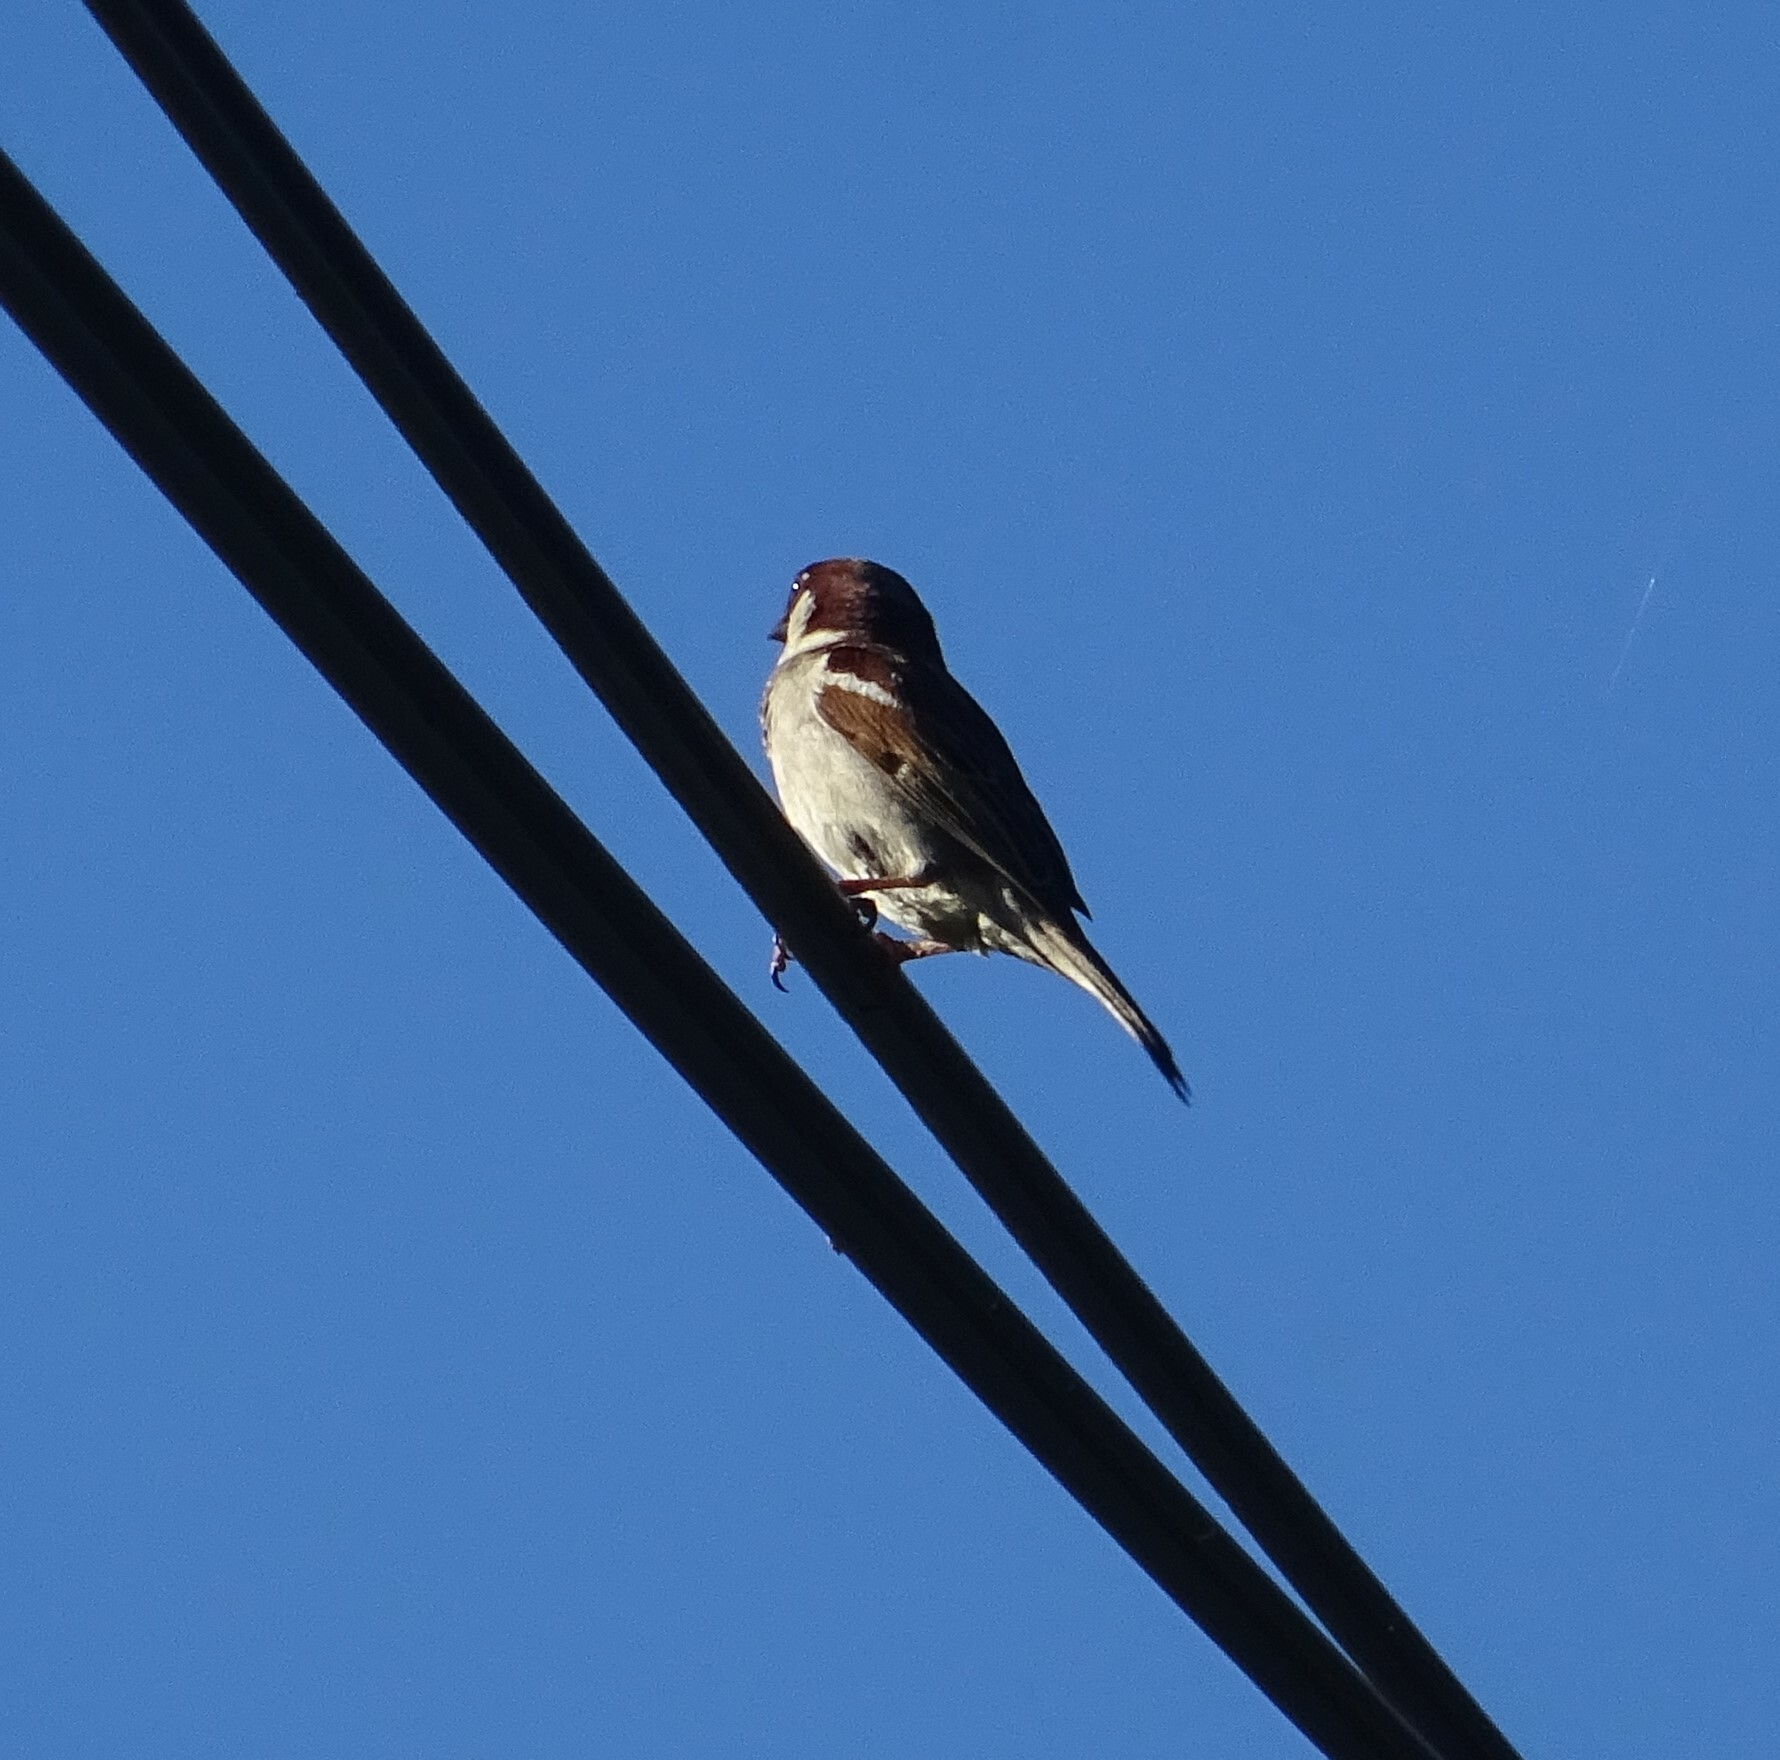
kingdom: Animalia
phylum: Chordata
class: Aves
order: Passeriformes
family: Passeridae
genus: Passer
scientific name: Passer domesticus
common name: House sparrow
